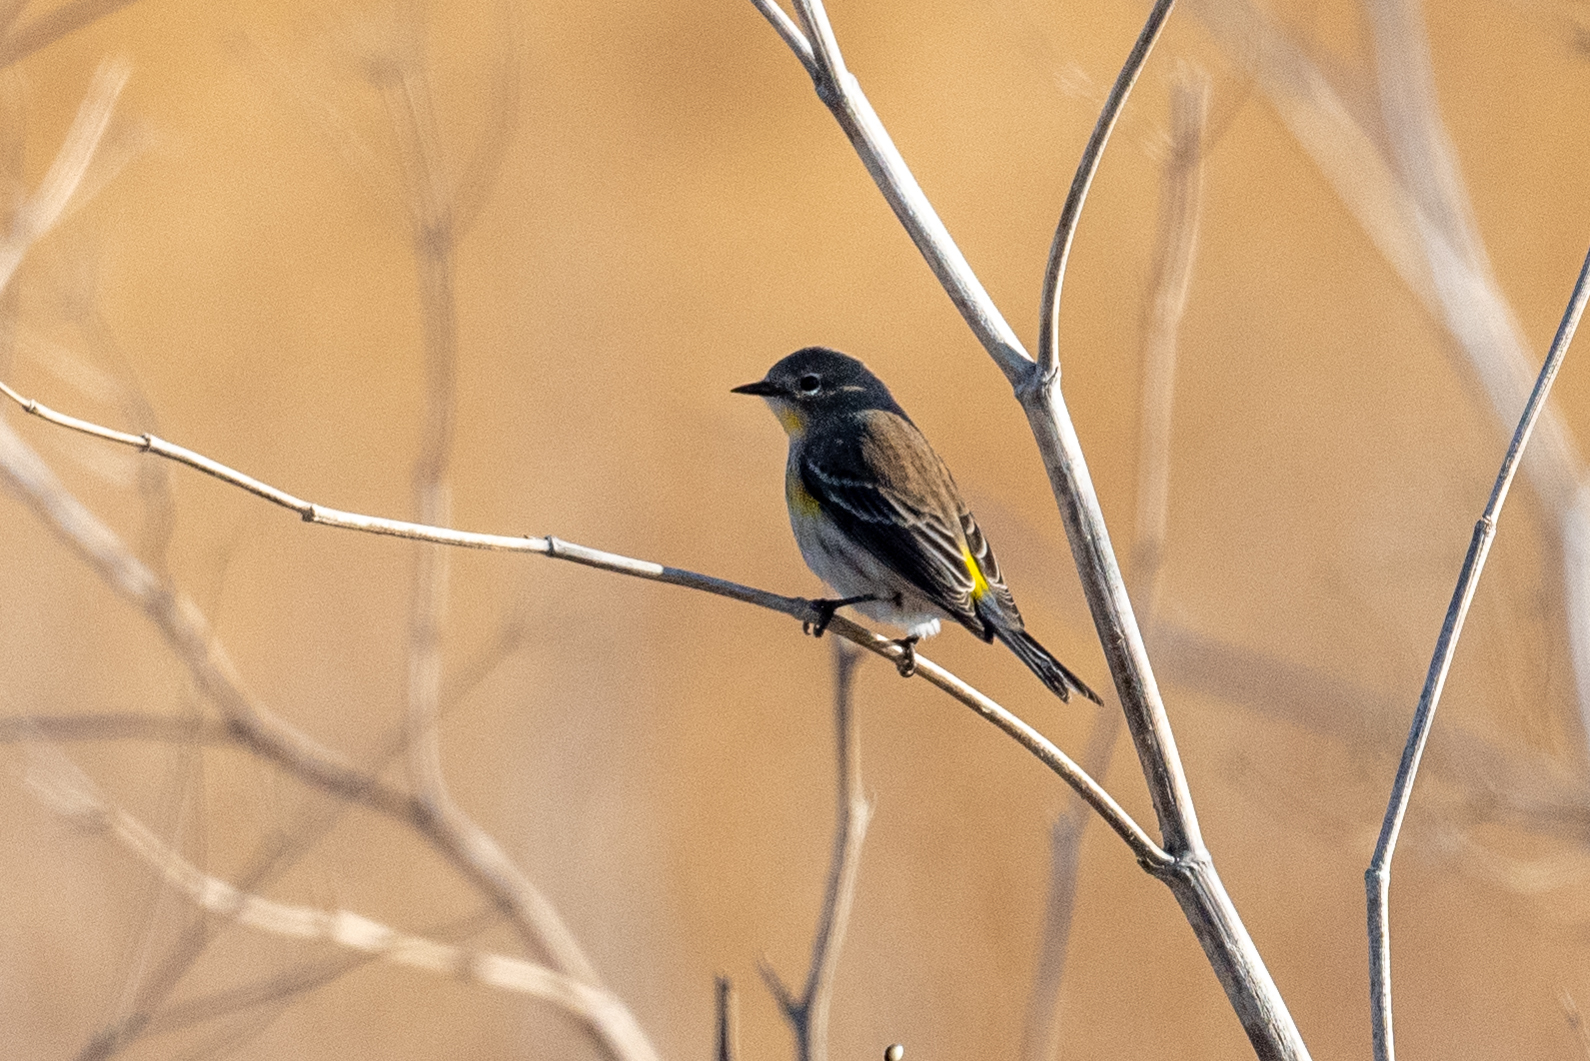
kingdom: Animalia
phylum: Chordata
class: Aves
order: Passeriformes
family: Parulidae
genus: Setophaga
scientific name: Setophaga coronata
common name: Myrtle warbler
